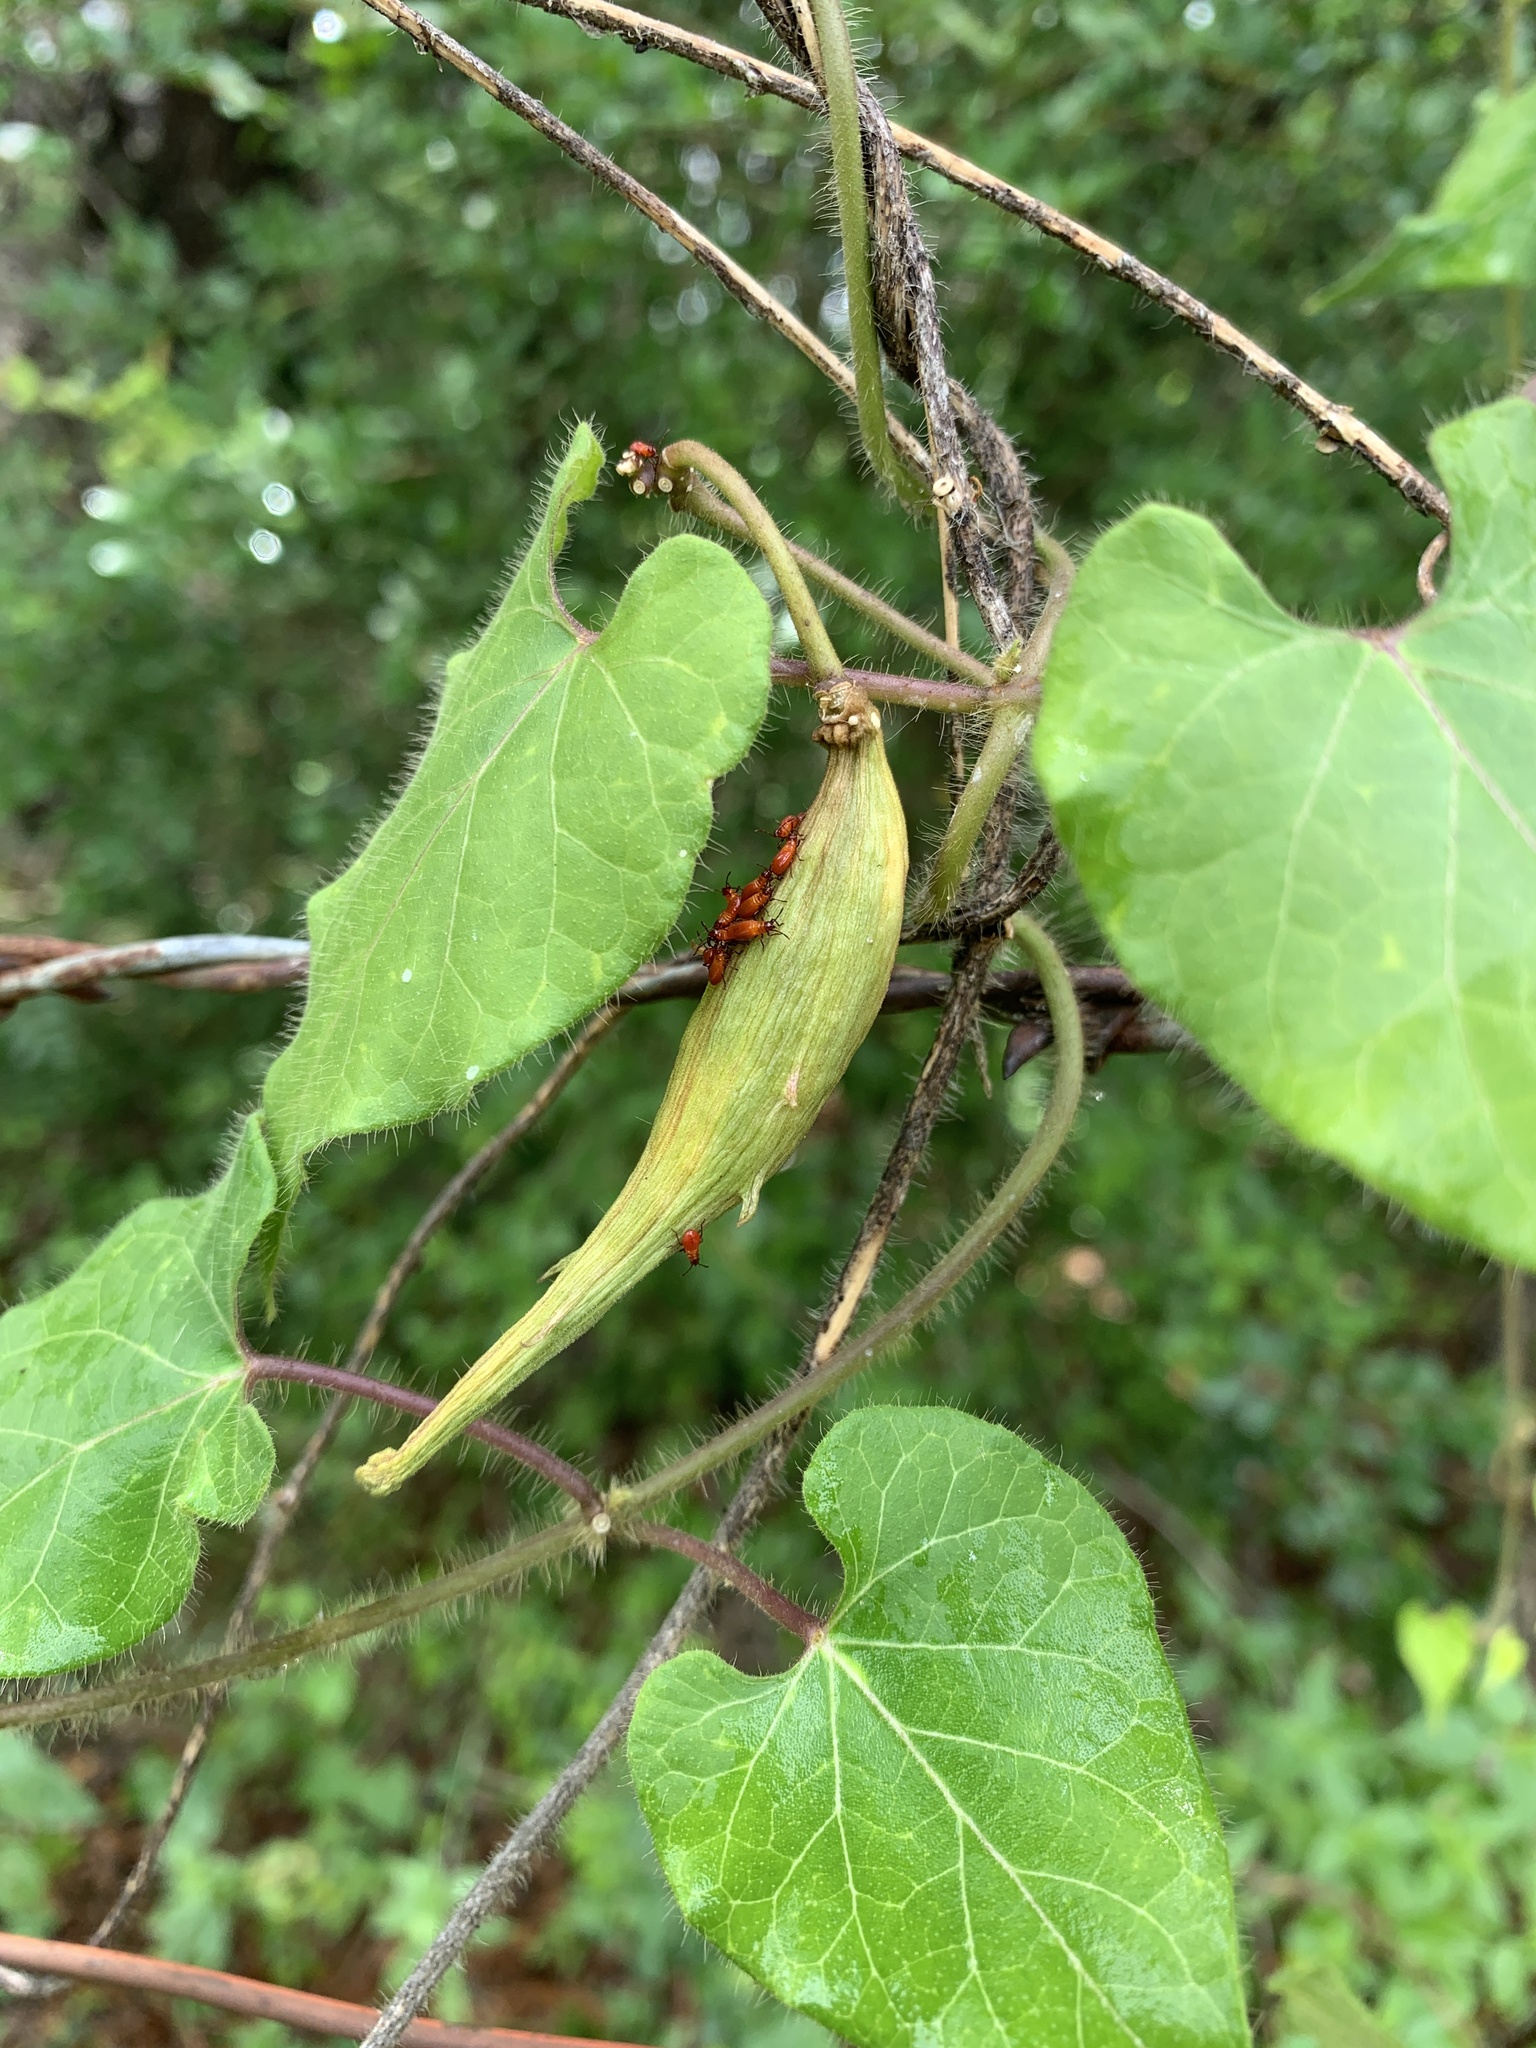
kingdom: Plantae
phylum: Tracheophyta
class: Magnoliopsida
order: Gentianales
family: Apocynaceae
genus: Dictyanthus
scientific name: Dictyanthus reticulatus
